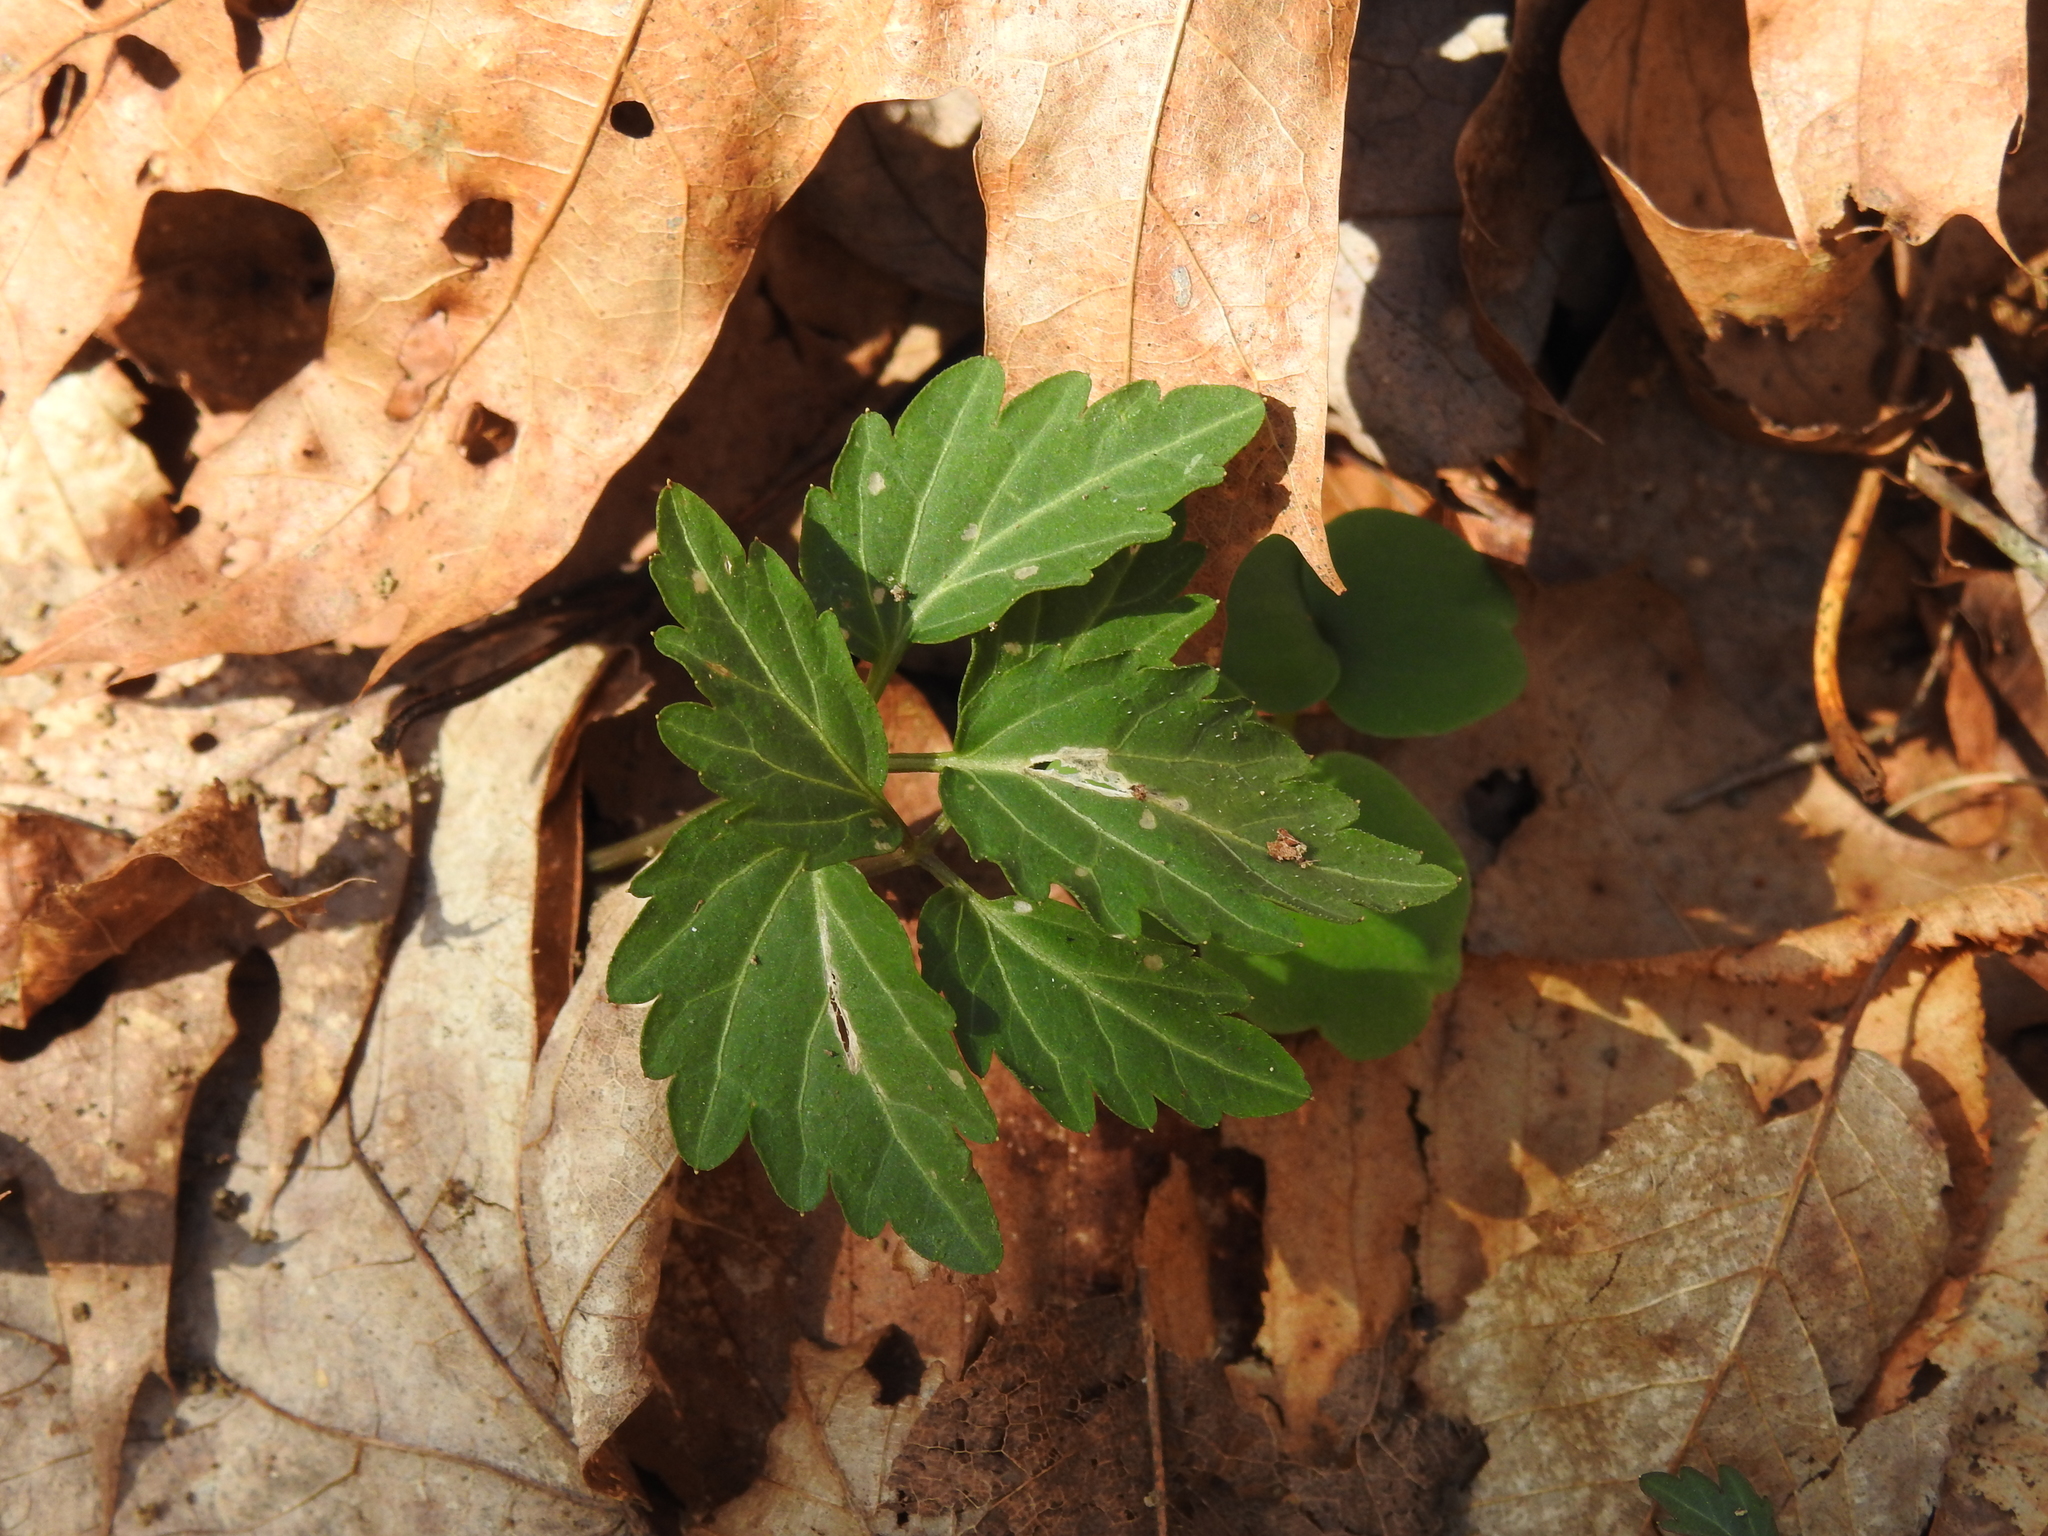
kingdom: Plantae
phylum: Tracheophyta
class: Magnoliopsida
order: Brassicales
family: Brassicaceae
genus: Cardamine
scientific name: Cardamine diphylla
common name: Broad-leaved toothwort
